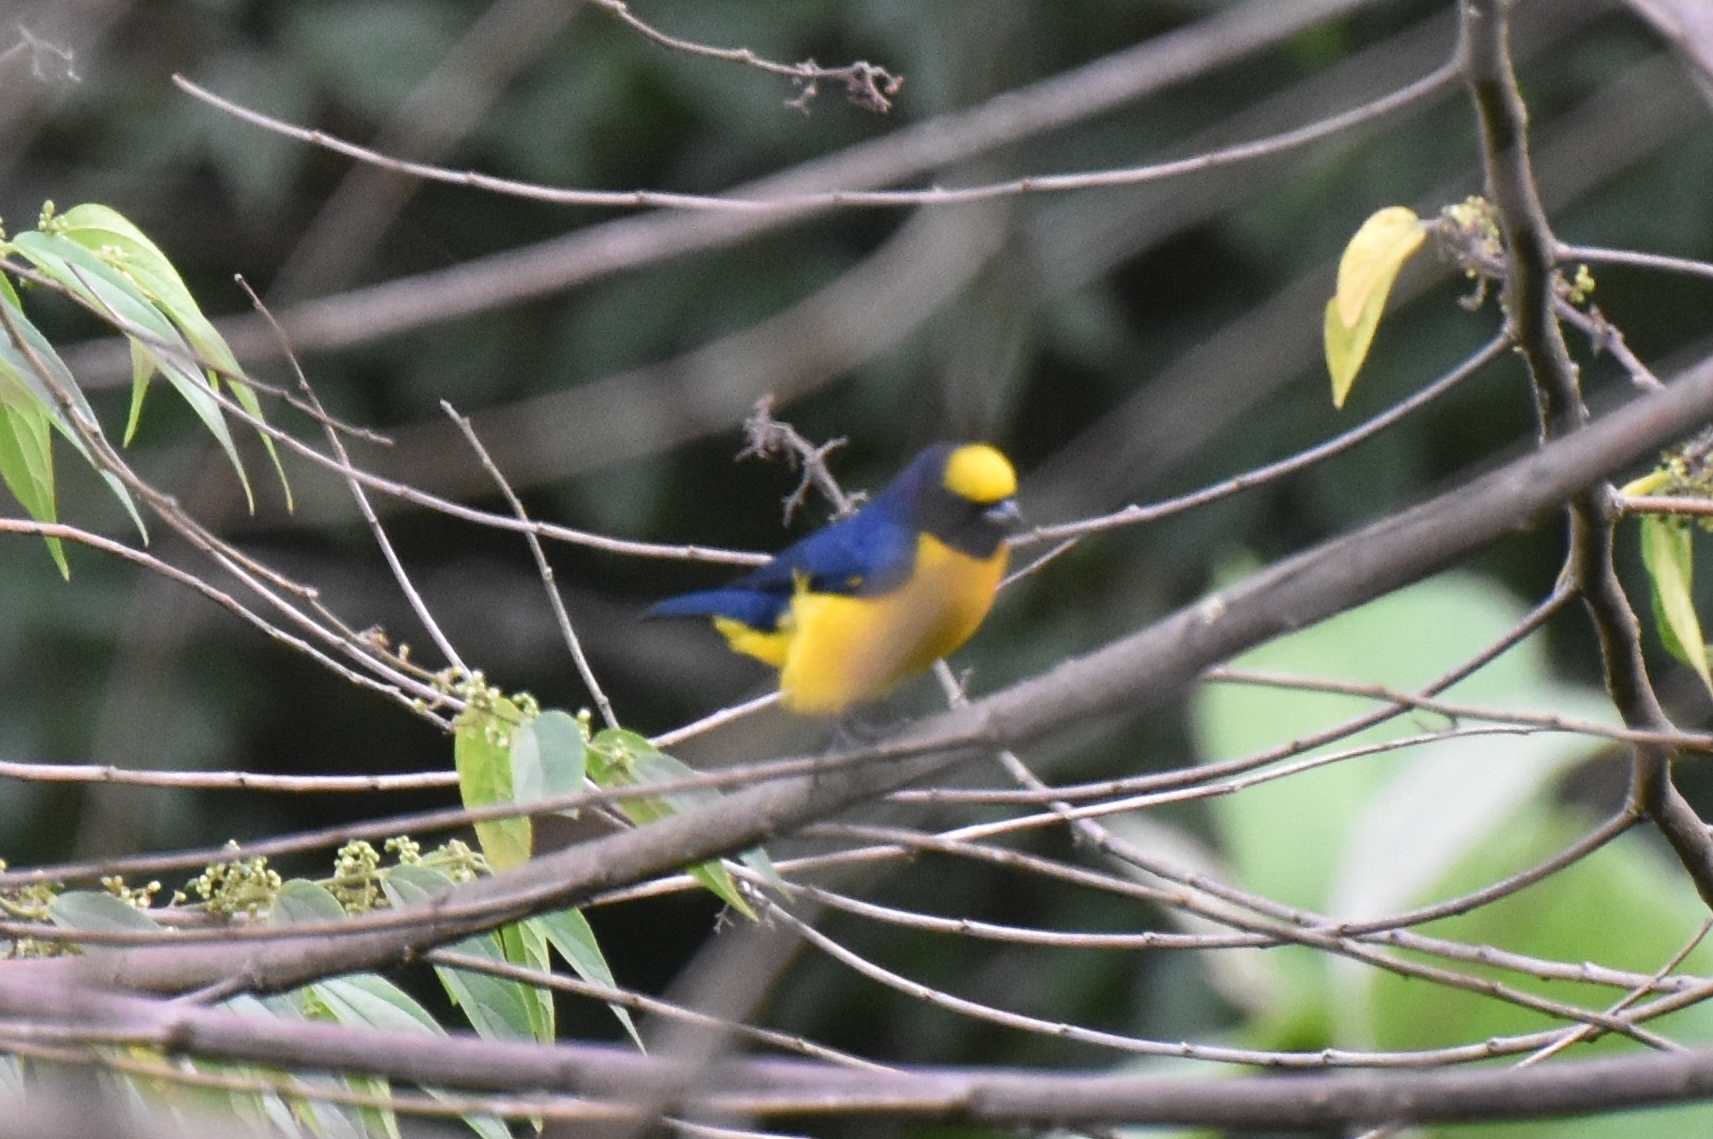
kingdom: Animalia
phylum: Chordata
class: Aves
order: Passeriformes
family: Fringillidae
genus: Euphonia
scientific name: Euphonia trinitatis
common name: Trinidad euphonia
